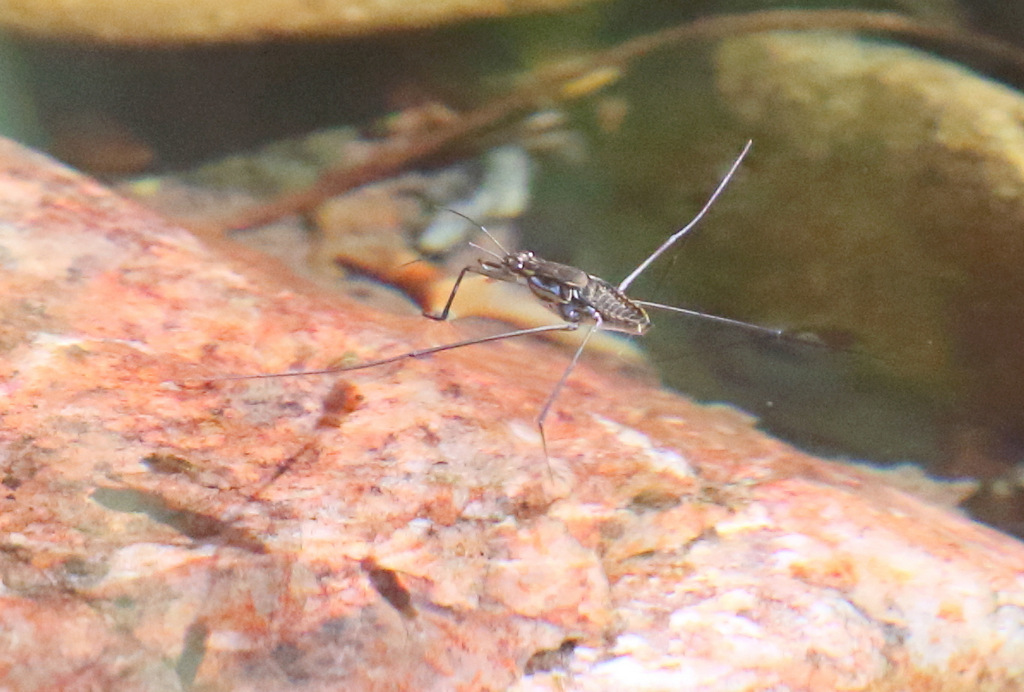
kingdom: Animalia
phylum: Arthropoda
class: Insecta
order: Hemiptera
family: Gerridae
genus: Tenagogerris
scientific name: Tenagogerris
